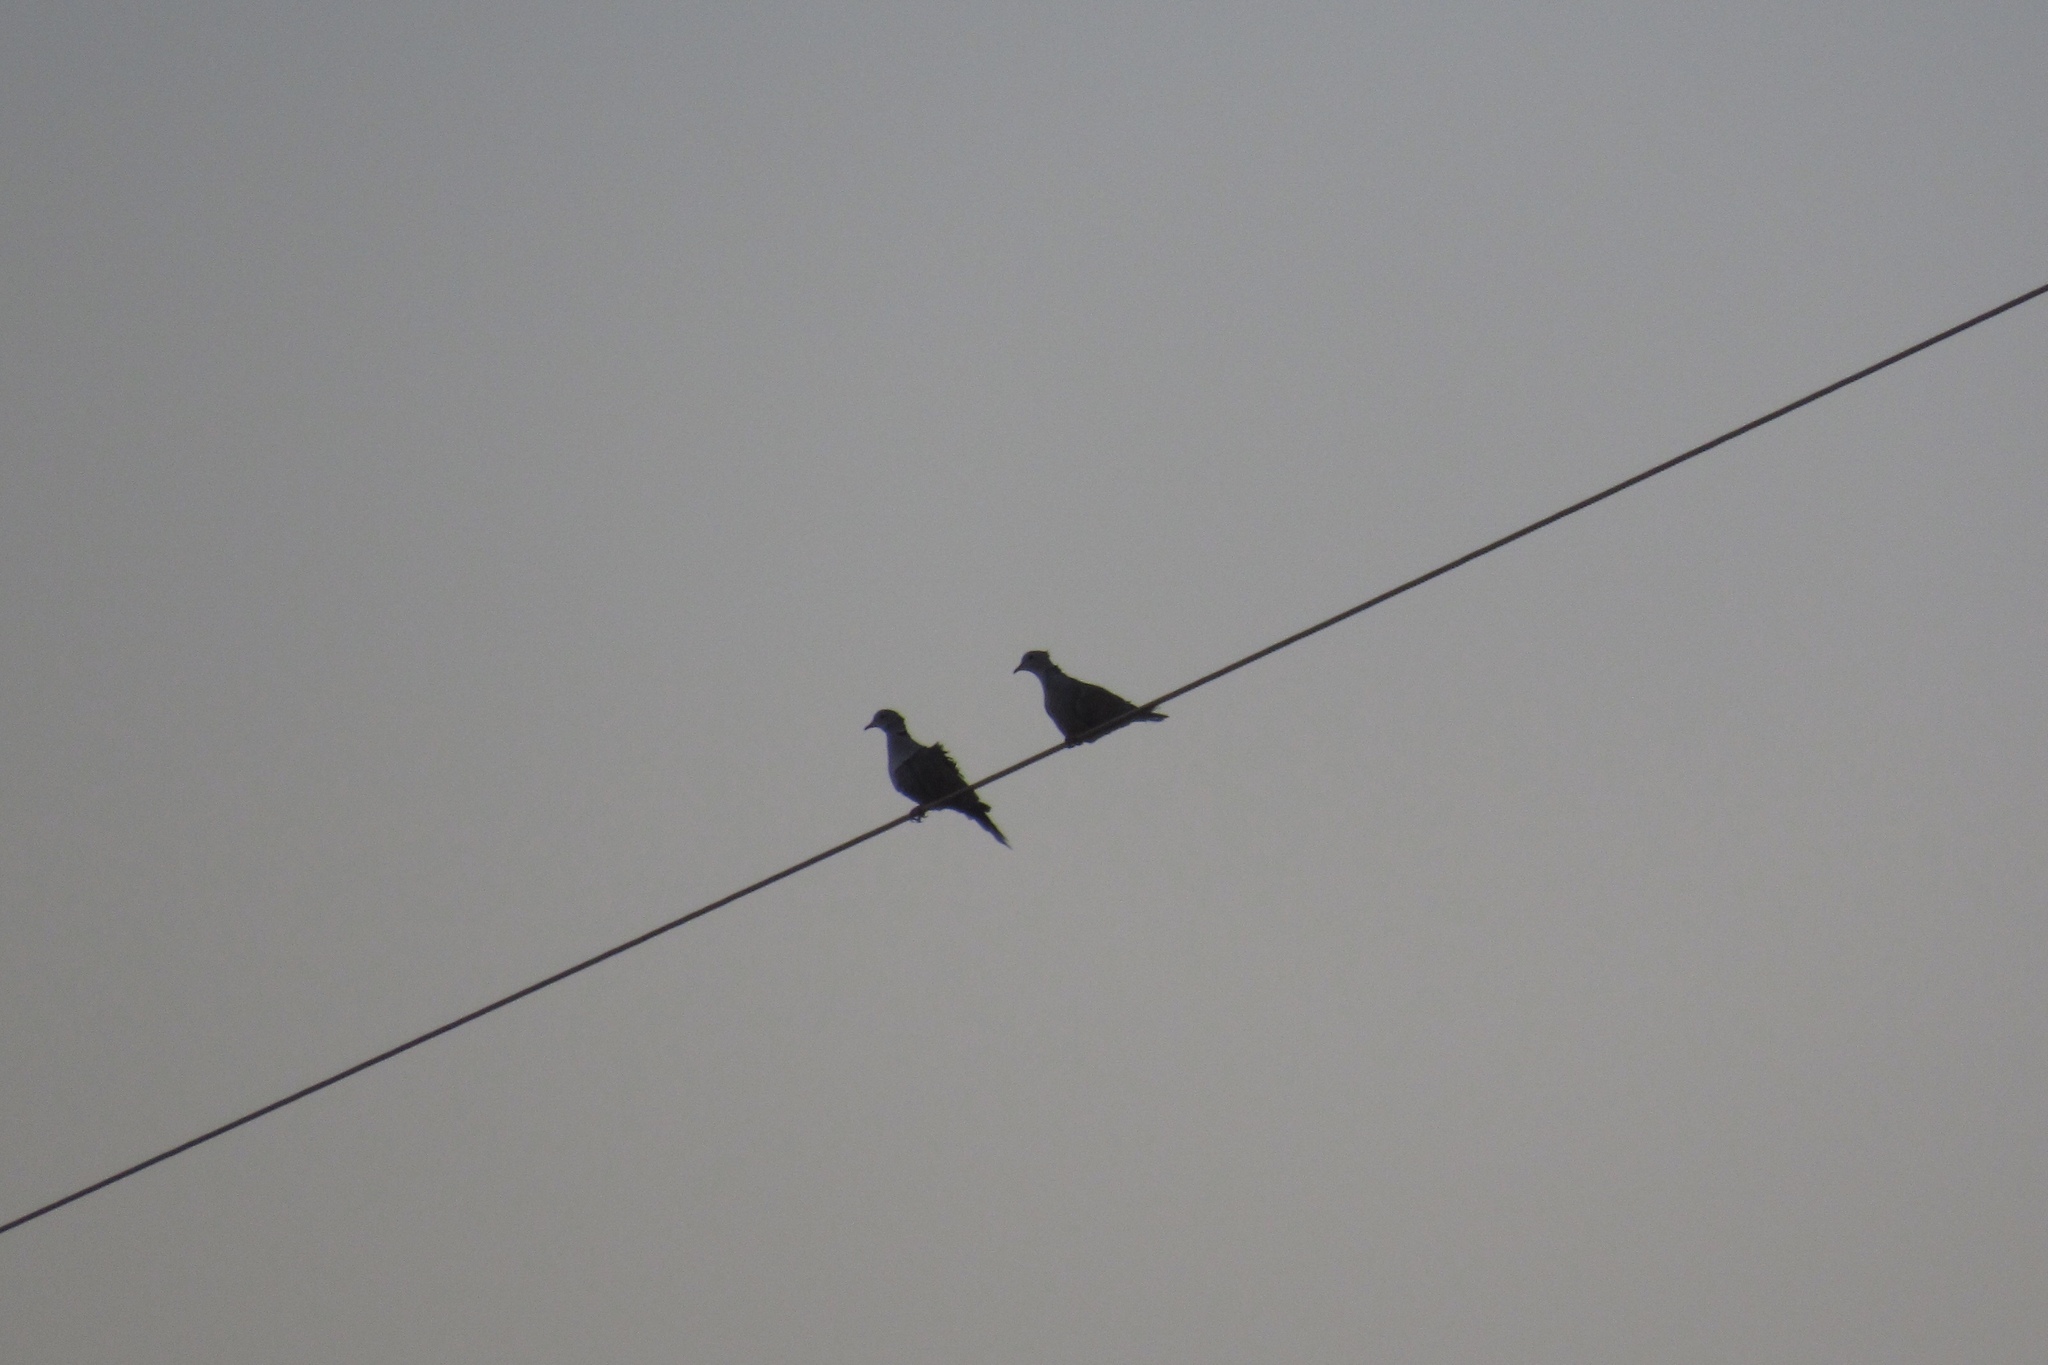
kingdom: Animalia
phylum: Chordata
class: Aves
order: Columbiformes
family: Columbidae
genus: Streptopelia
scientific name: Streptopelia decaocto
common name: Eurasian collared dove
